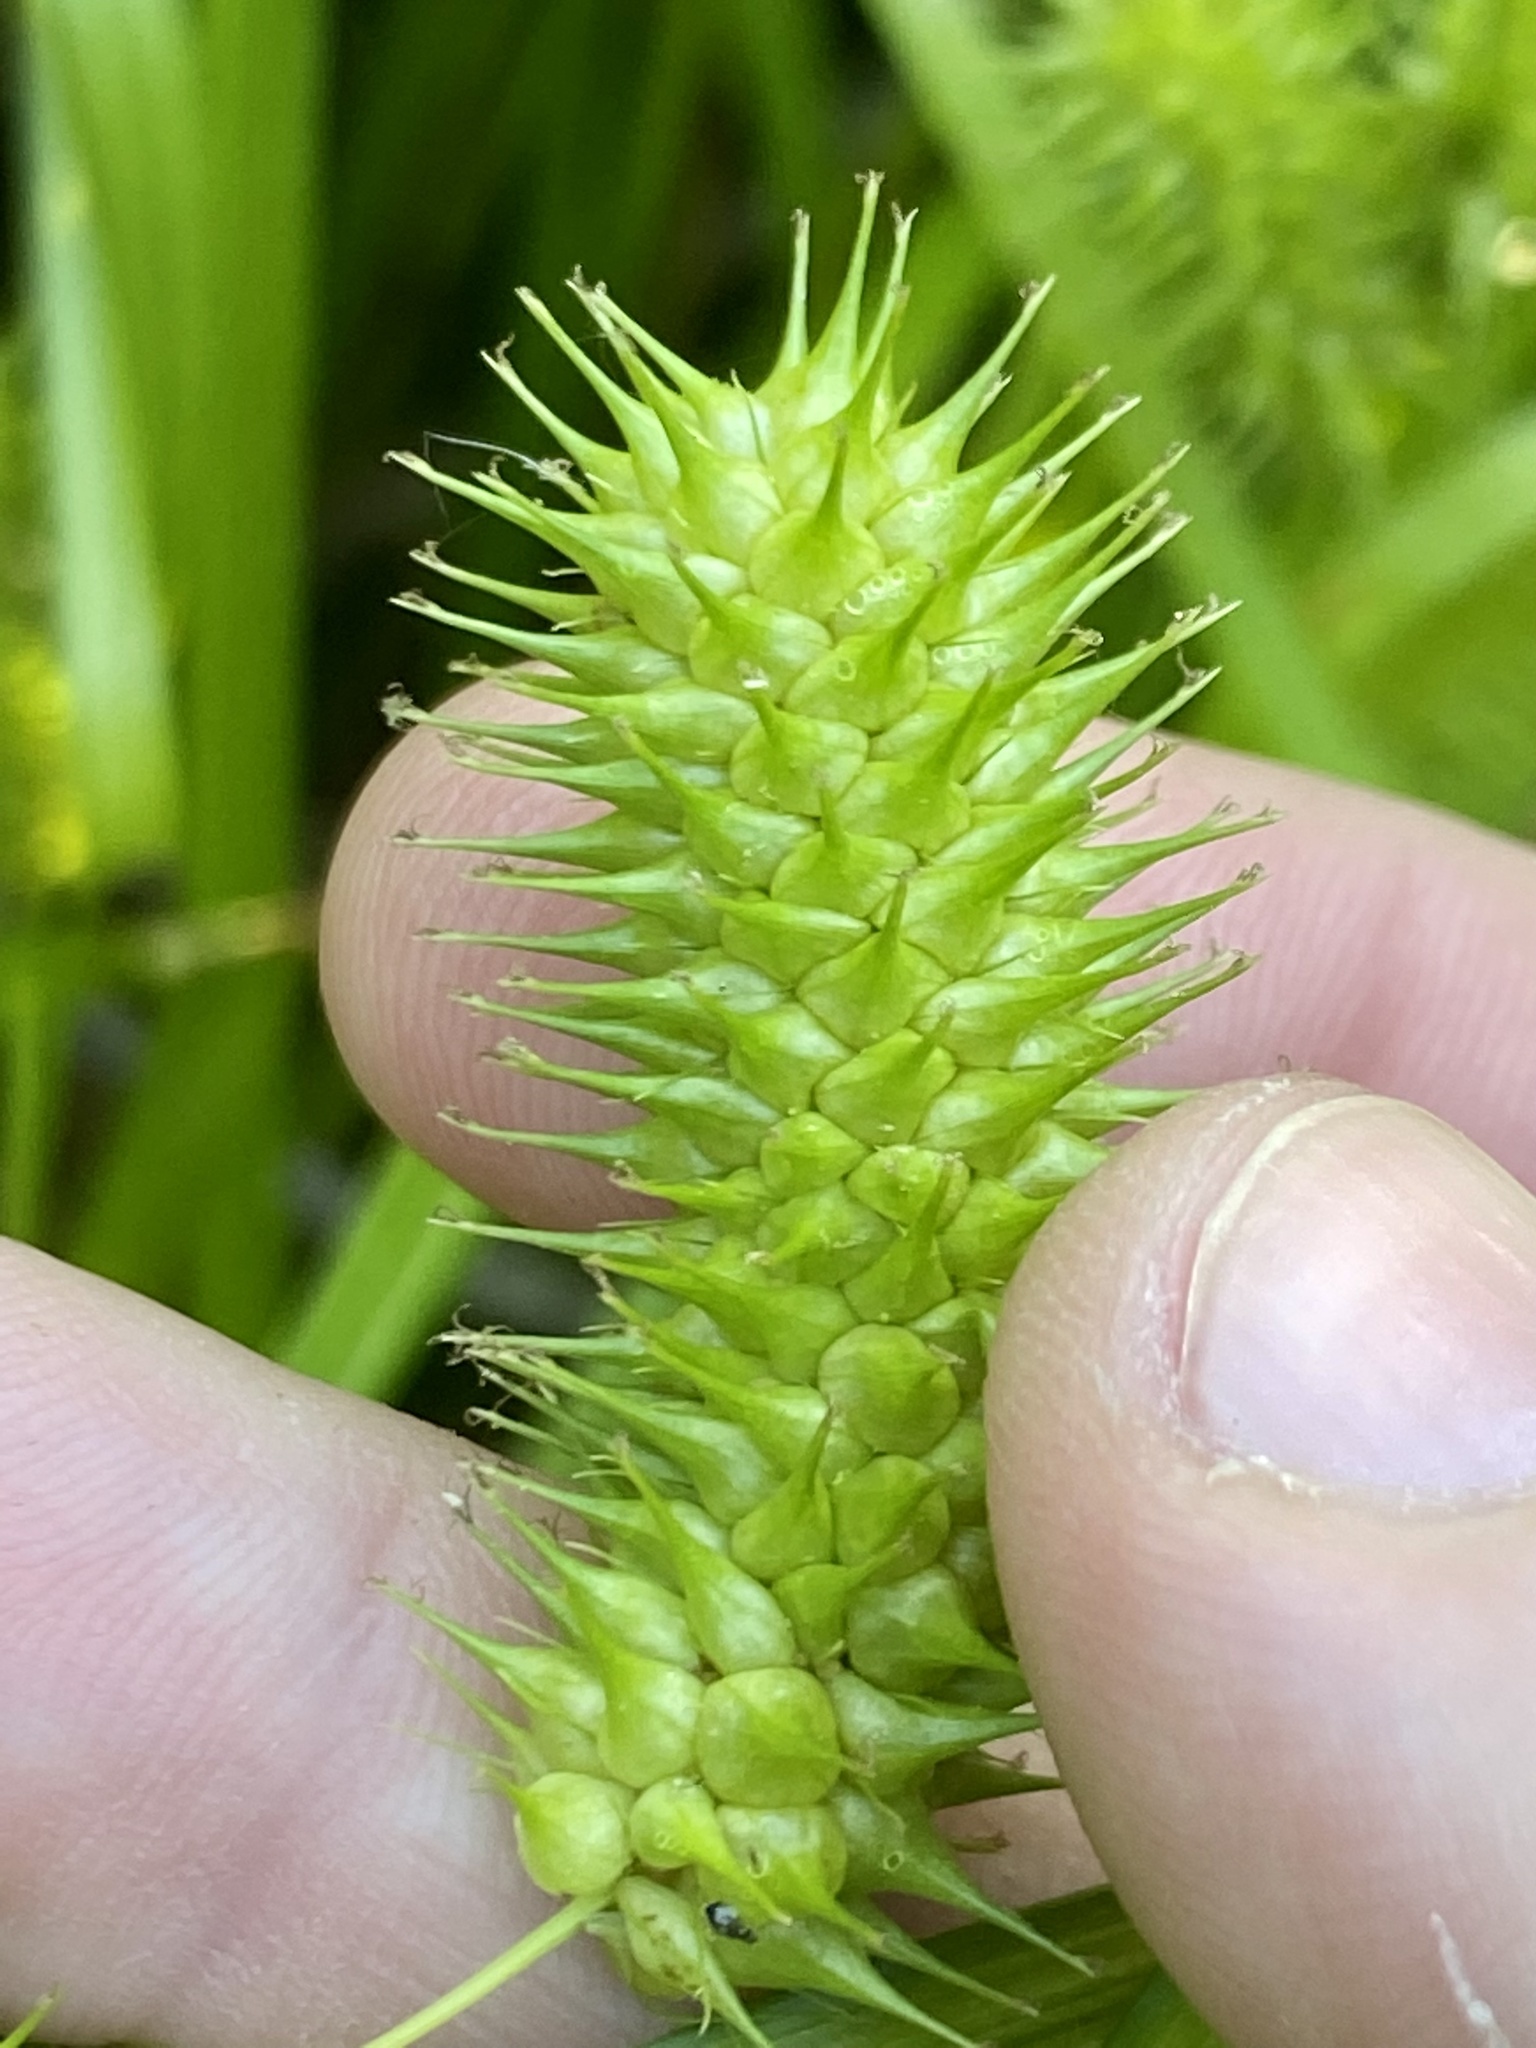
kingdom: Plantae
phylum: Tracheophyta
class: Liliopsida
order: Poales
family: Cyperaceae
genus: Carex
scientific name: Carex lurida
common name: Sallow sedge
